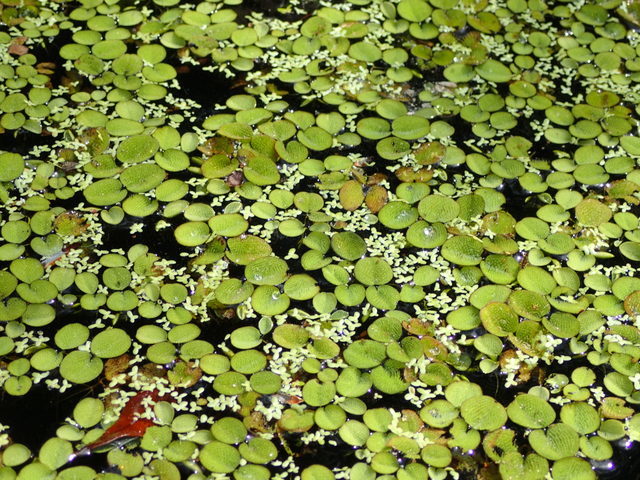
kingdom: Plantae
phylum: Tracheophyta
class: Polypodiopsida
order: Salviniales
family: Salviniaceae
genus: Salvinia
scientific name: Salvinia minima
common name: Water spangles
